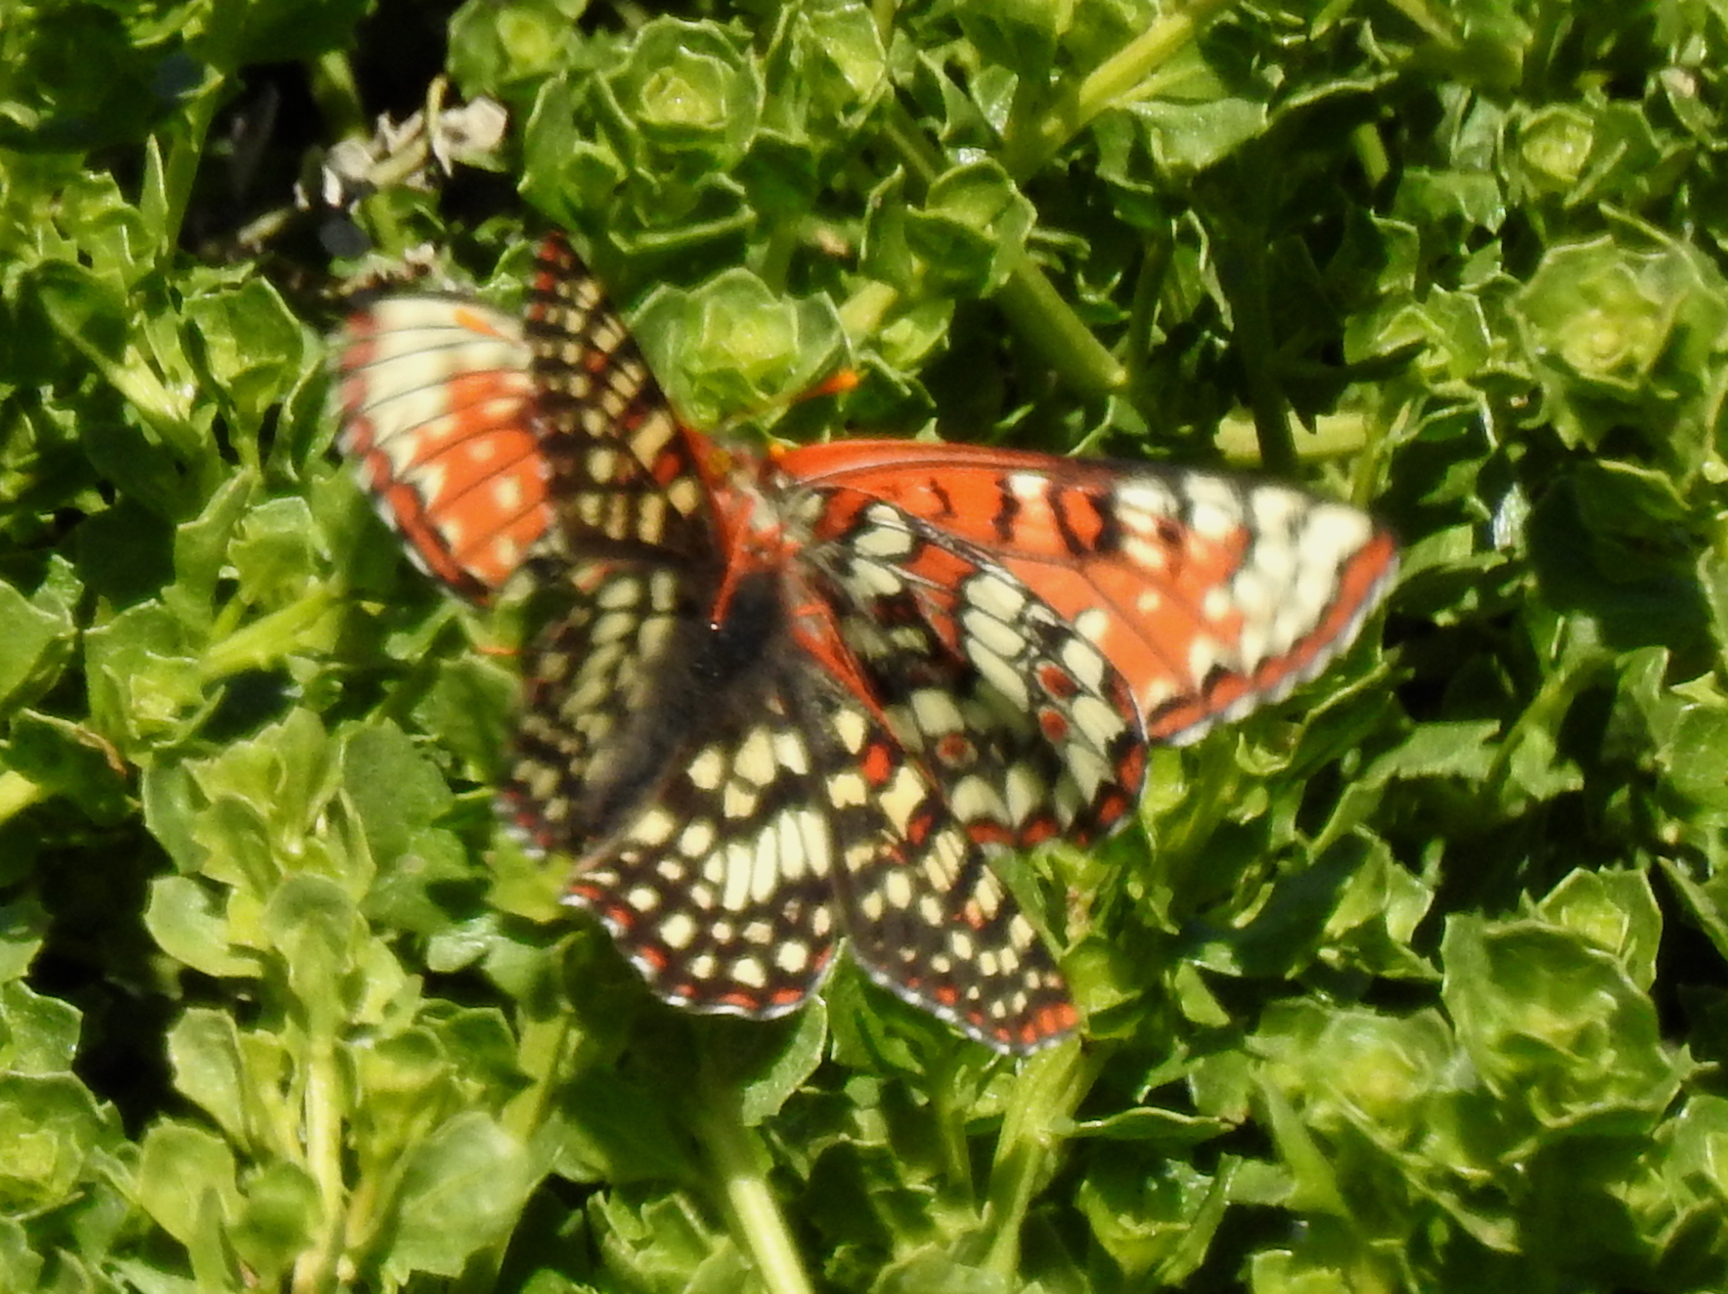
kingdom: Animalia
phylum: Arthropoda
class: Insecta
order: Lepidoptera
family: Nymphalidae
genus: Occidryas
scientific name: Occidryas chalcedona
